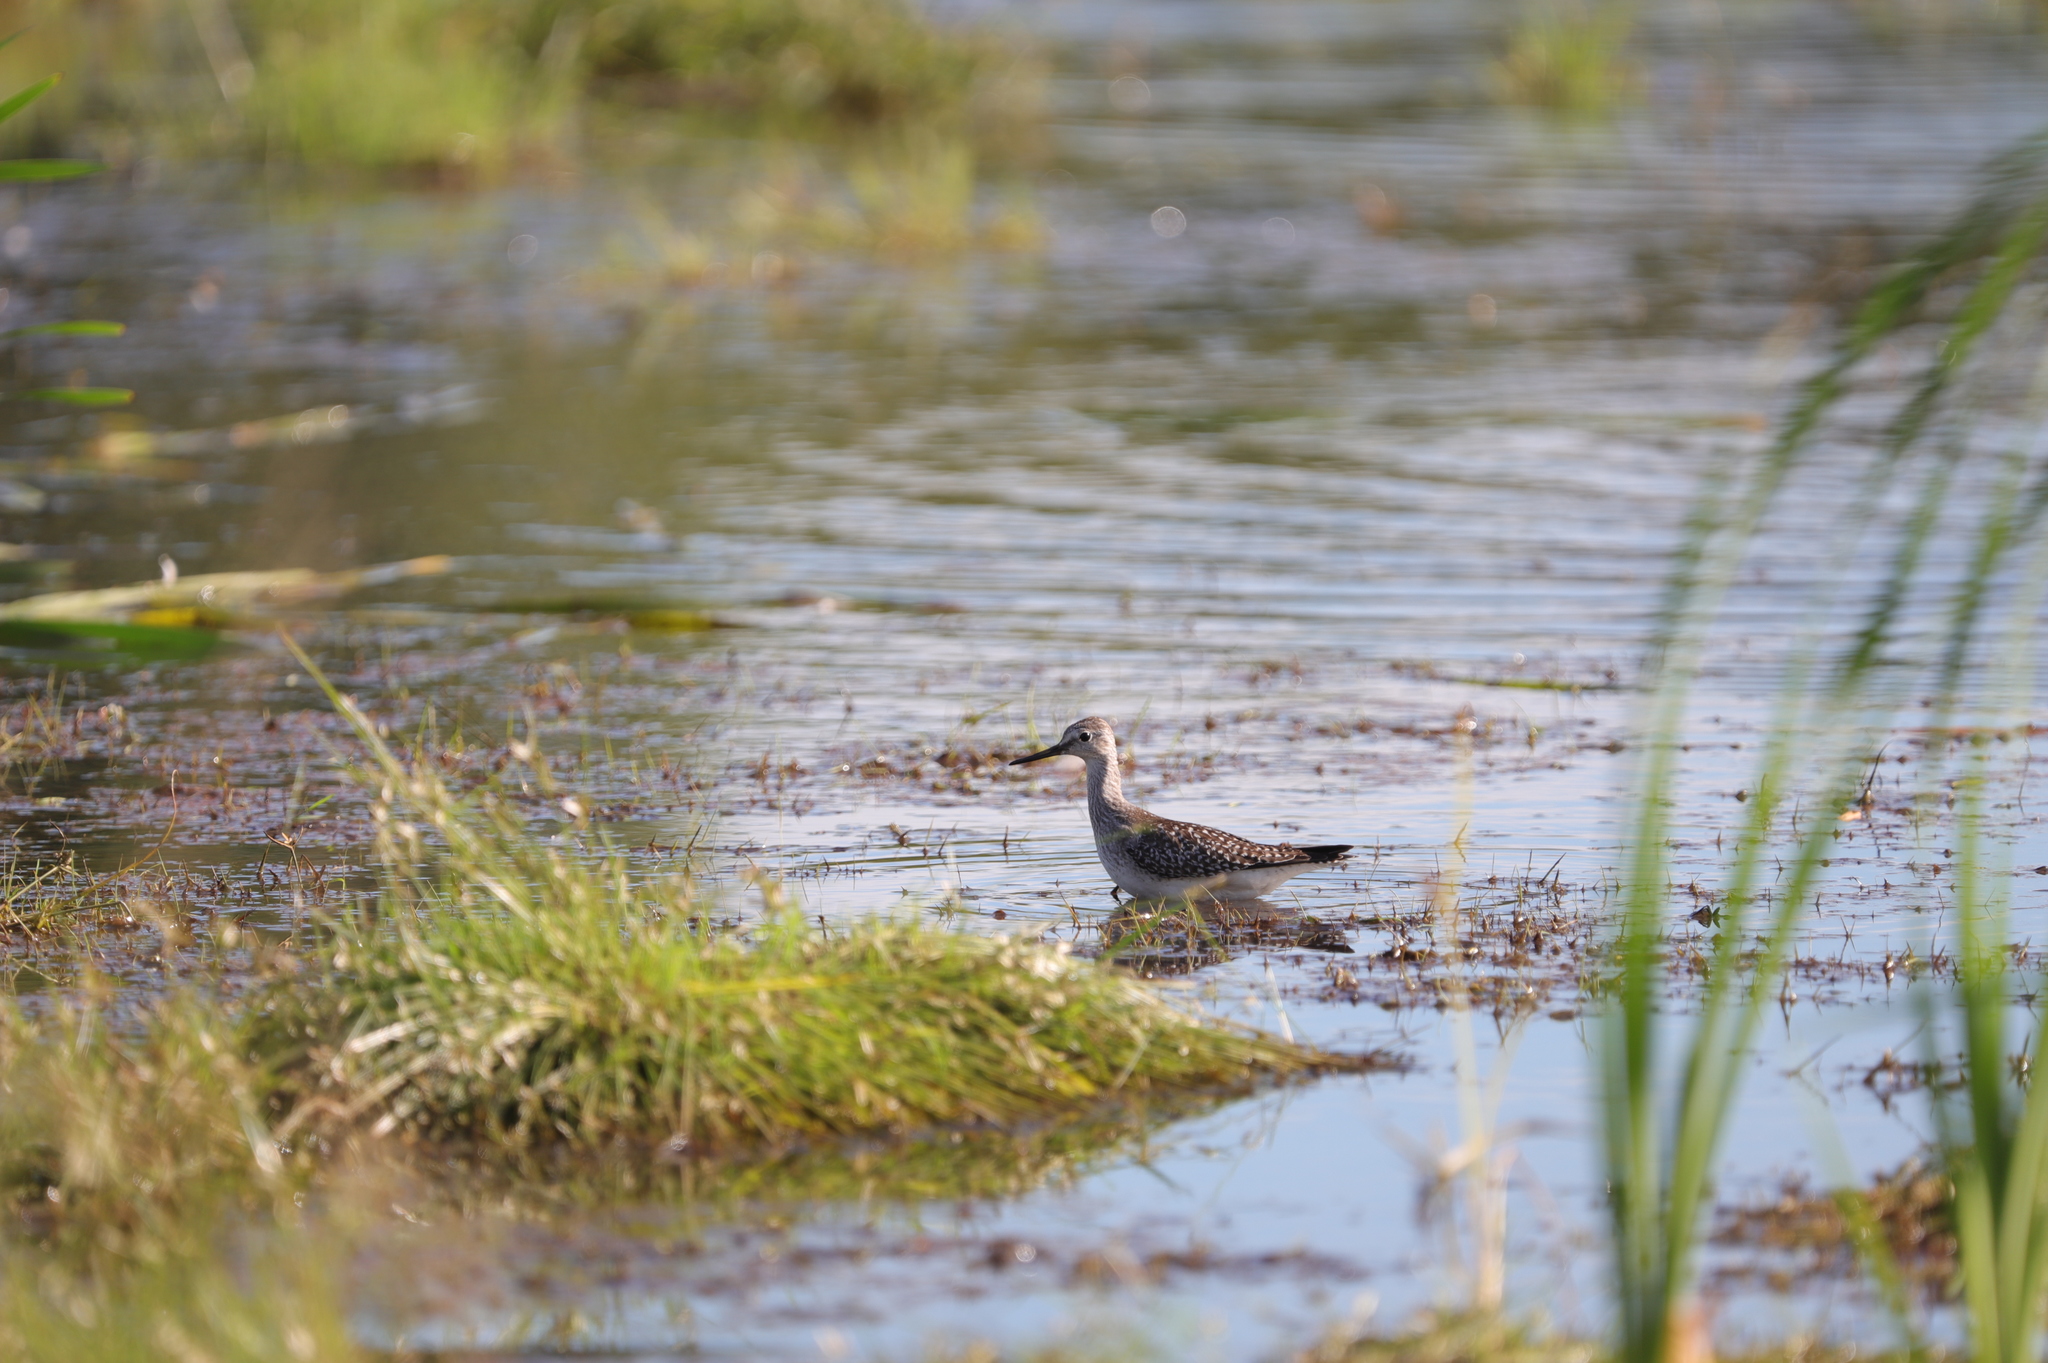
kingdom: Animalia
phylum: Chordata
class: Aves
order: Charadriiformes
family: Scolopacidae
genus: Tringa
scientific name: Tringa melanoleuca
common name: Greater yellowlegs
